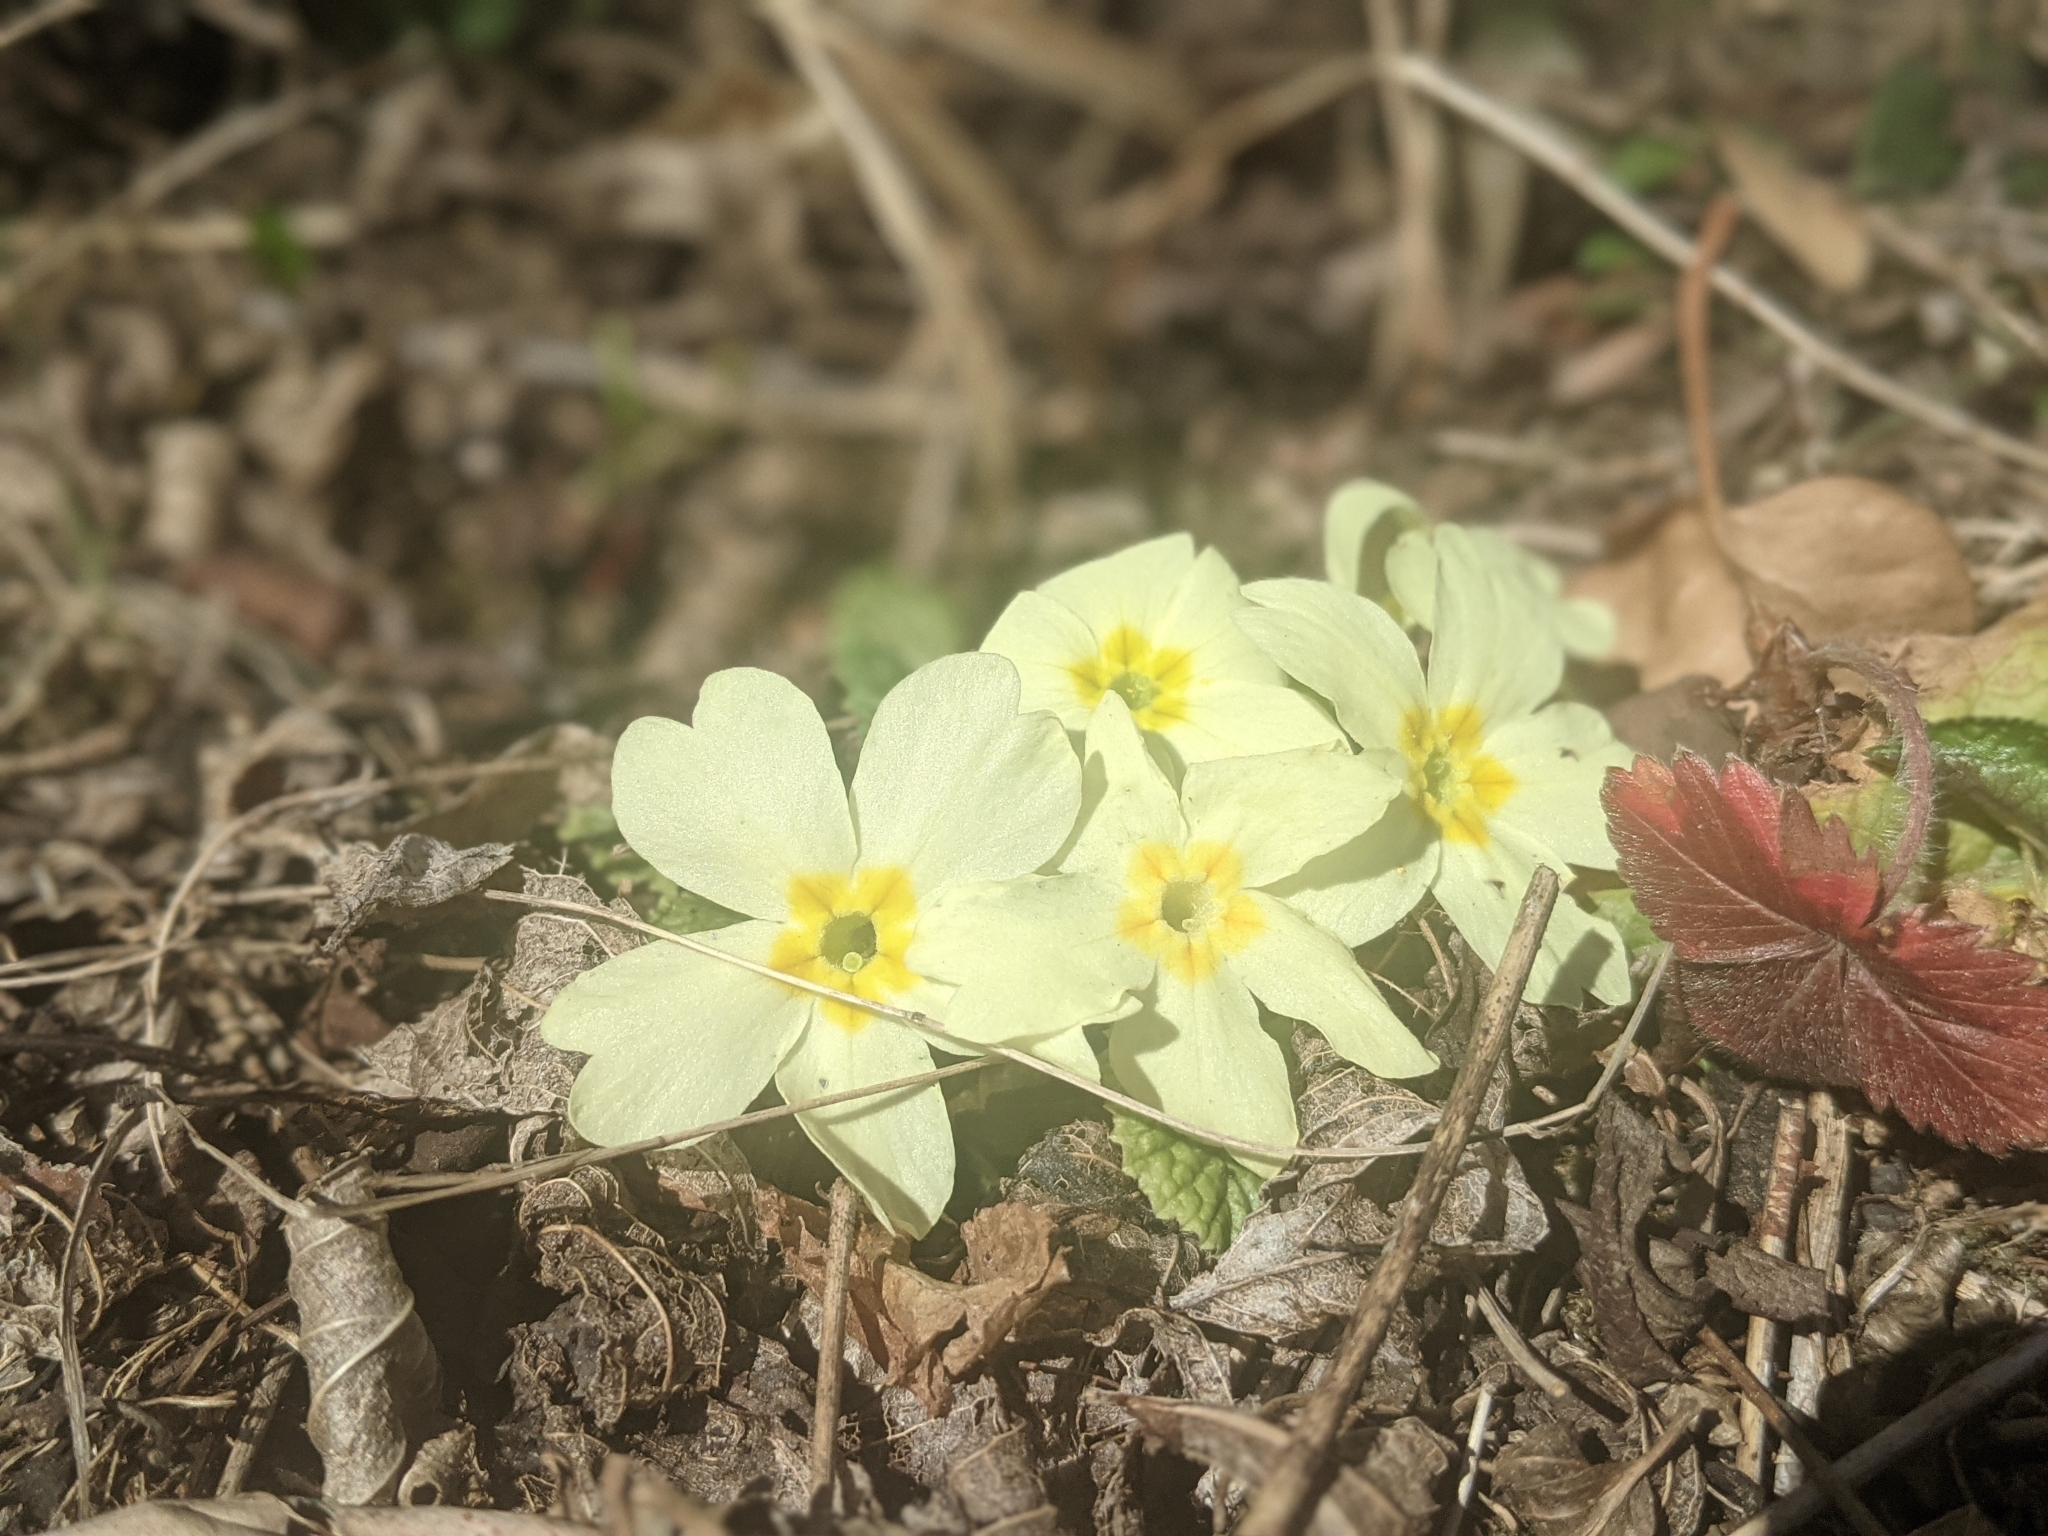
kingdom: Plantae
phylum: Tracheophyta
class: Magnoliopsida
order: Ericales
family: Primulaceae
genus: Primula
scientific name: Primula vulgaris
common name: Primrose
